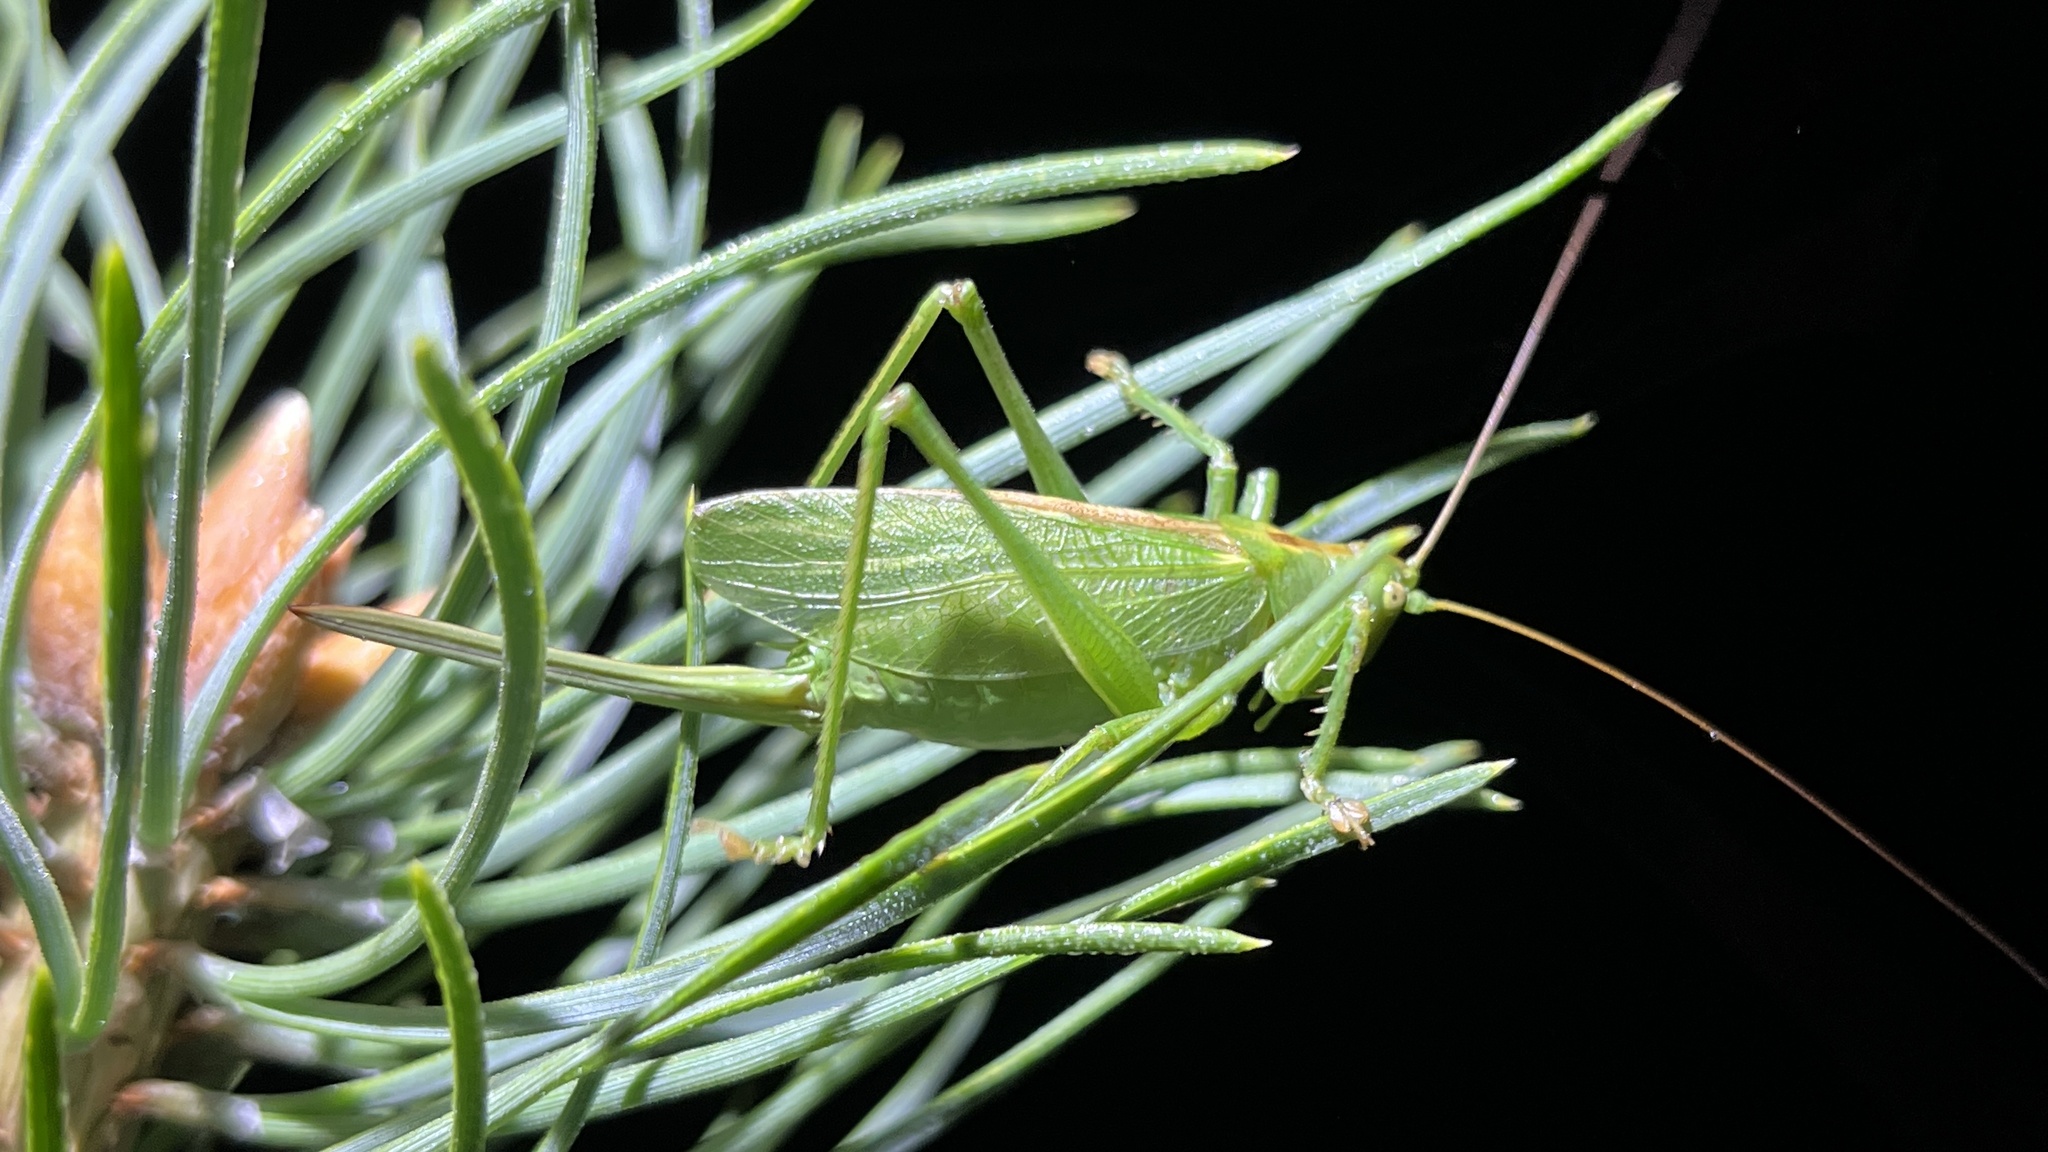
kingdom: Animalia
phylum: Arthropoda
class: Insecta
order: Orthoptera
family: Tettigoniidae
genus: Tettigonia
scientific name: Tettigonia cantans
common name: Upland green bush-cricket
